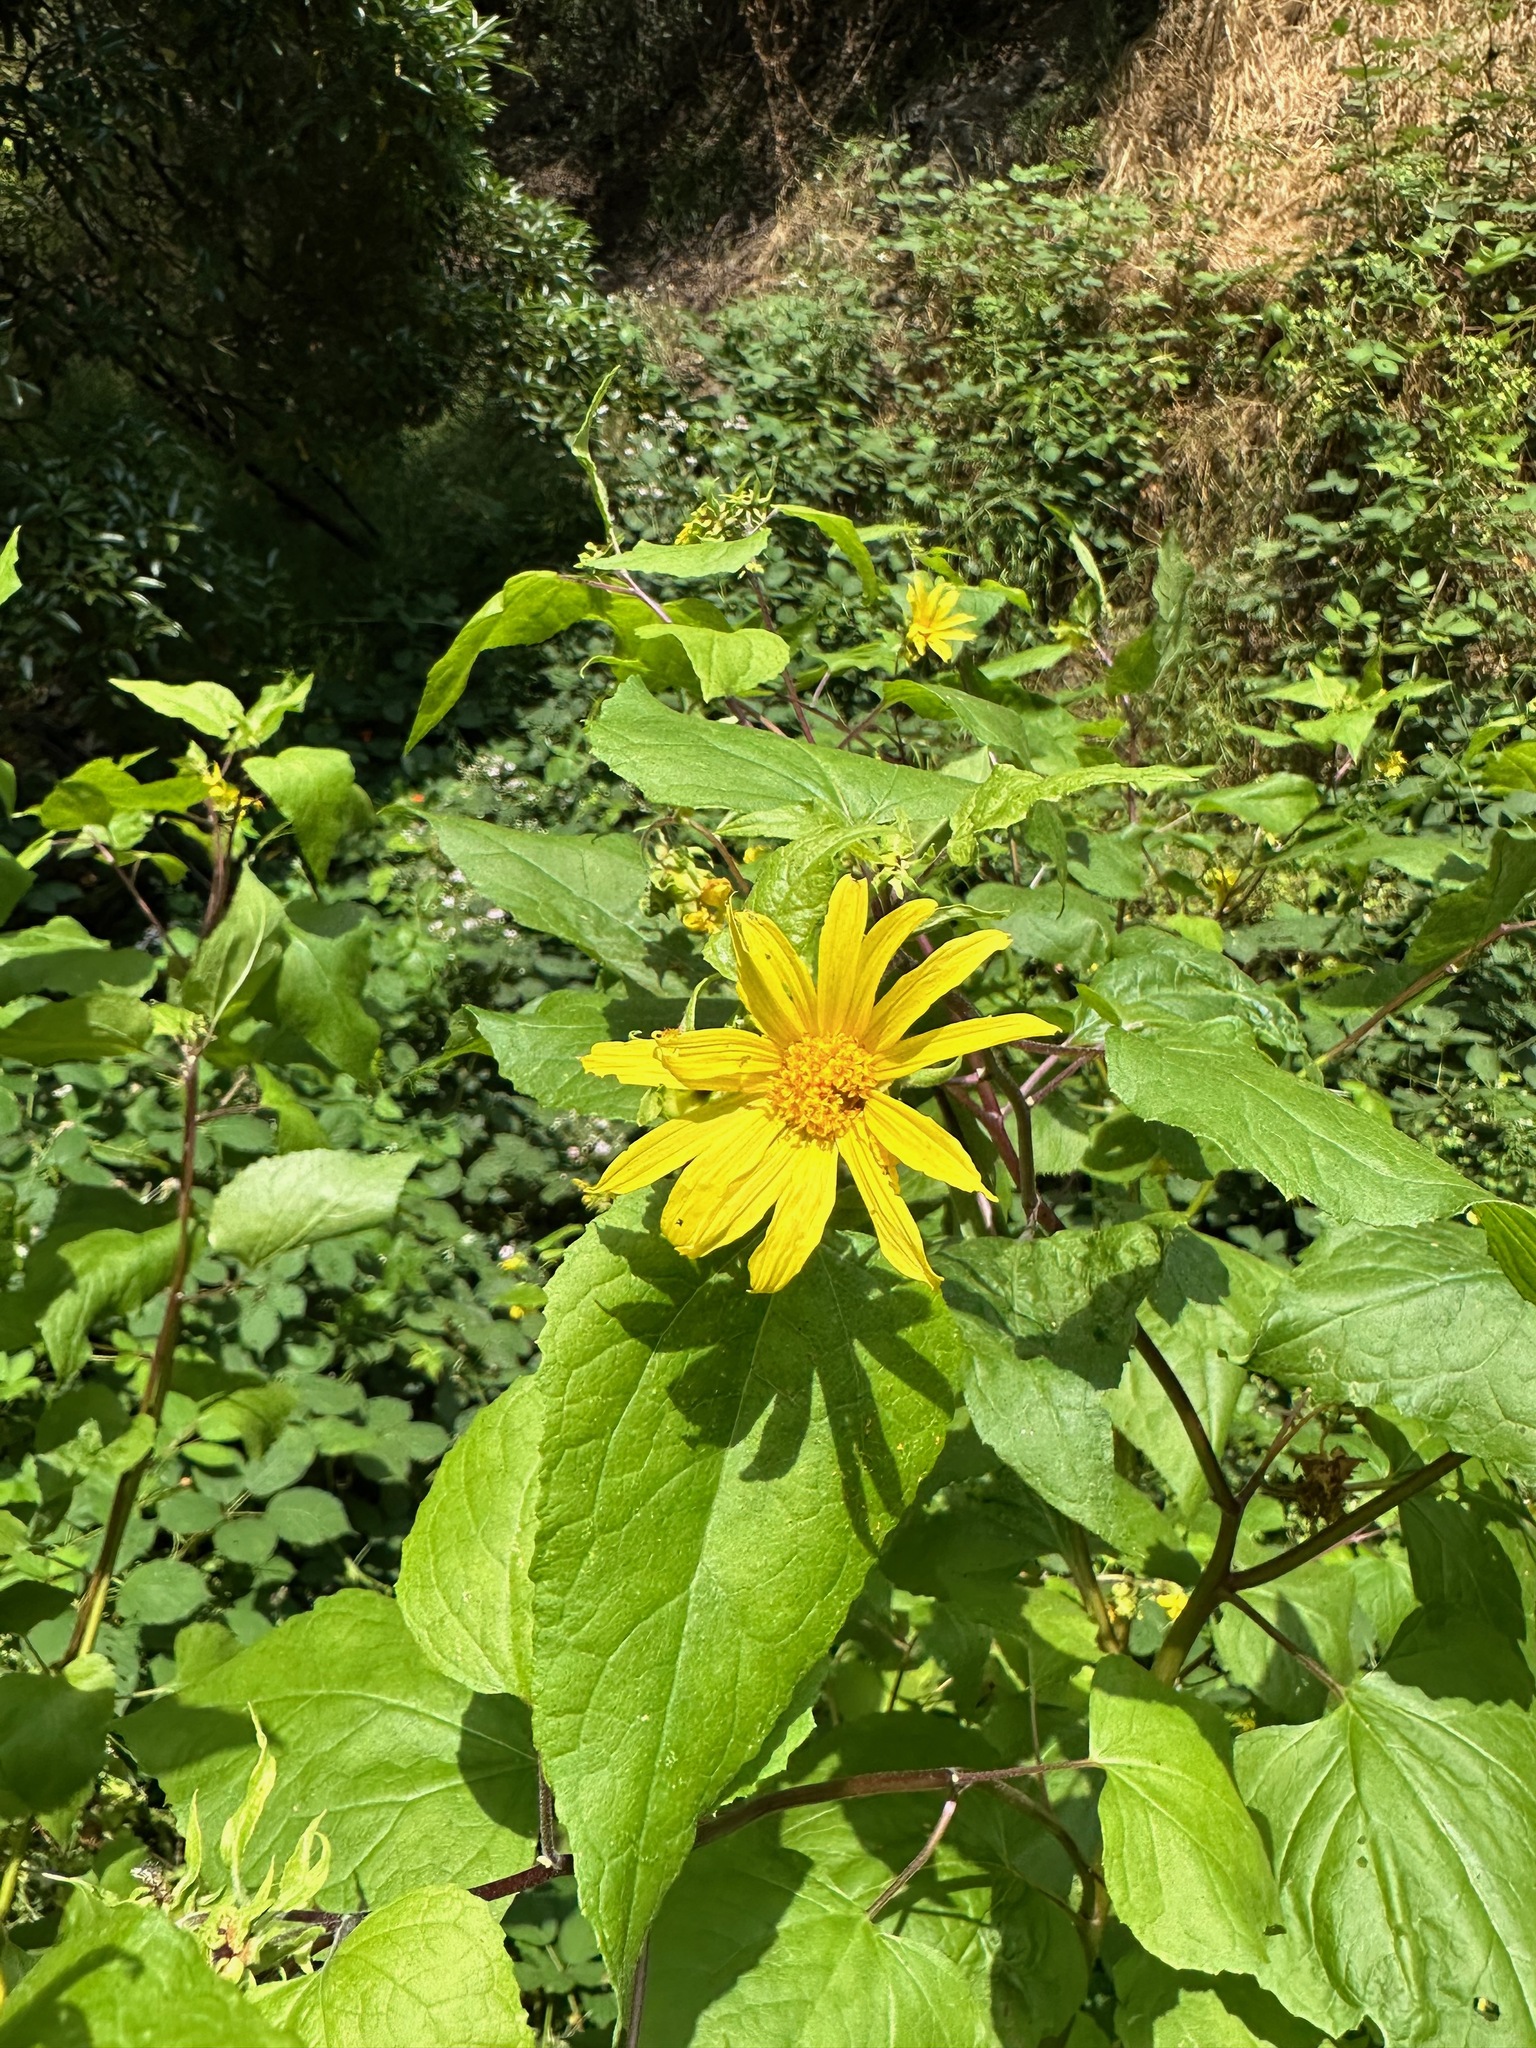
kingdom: Plantae
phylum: Tracheophyta
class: Magnoliopsida
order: Asterales
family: Asteraceae
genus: Venegasia
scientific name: Venegasia carpesioides
